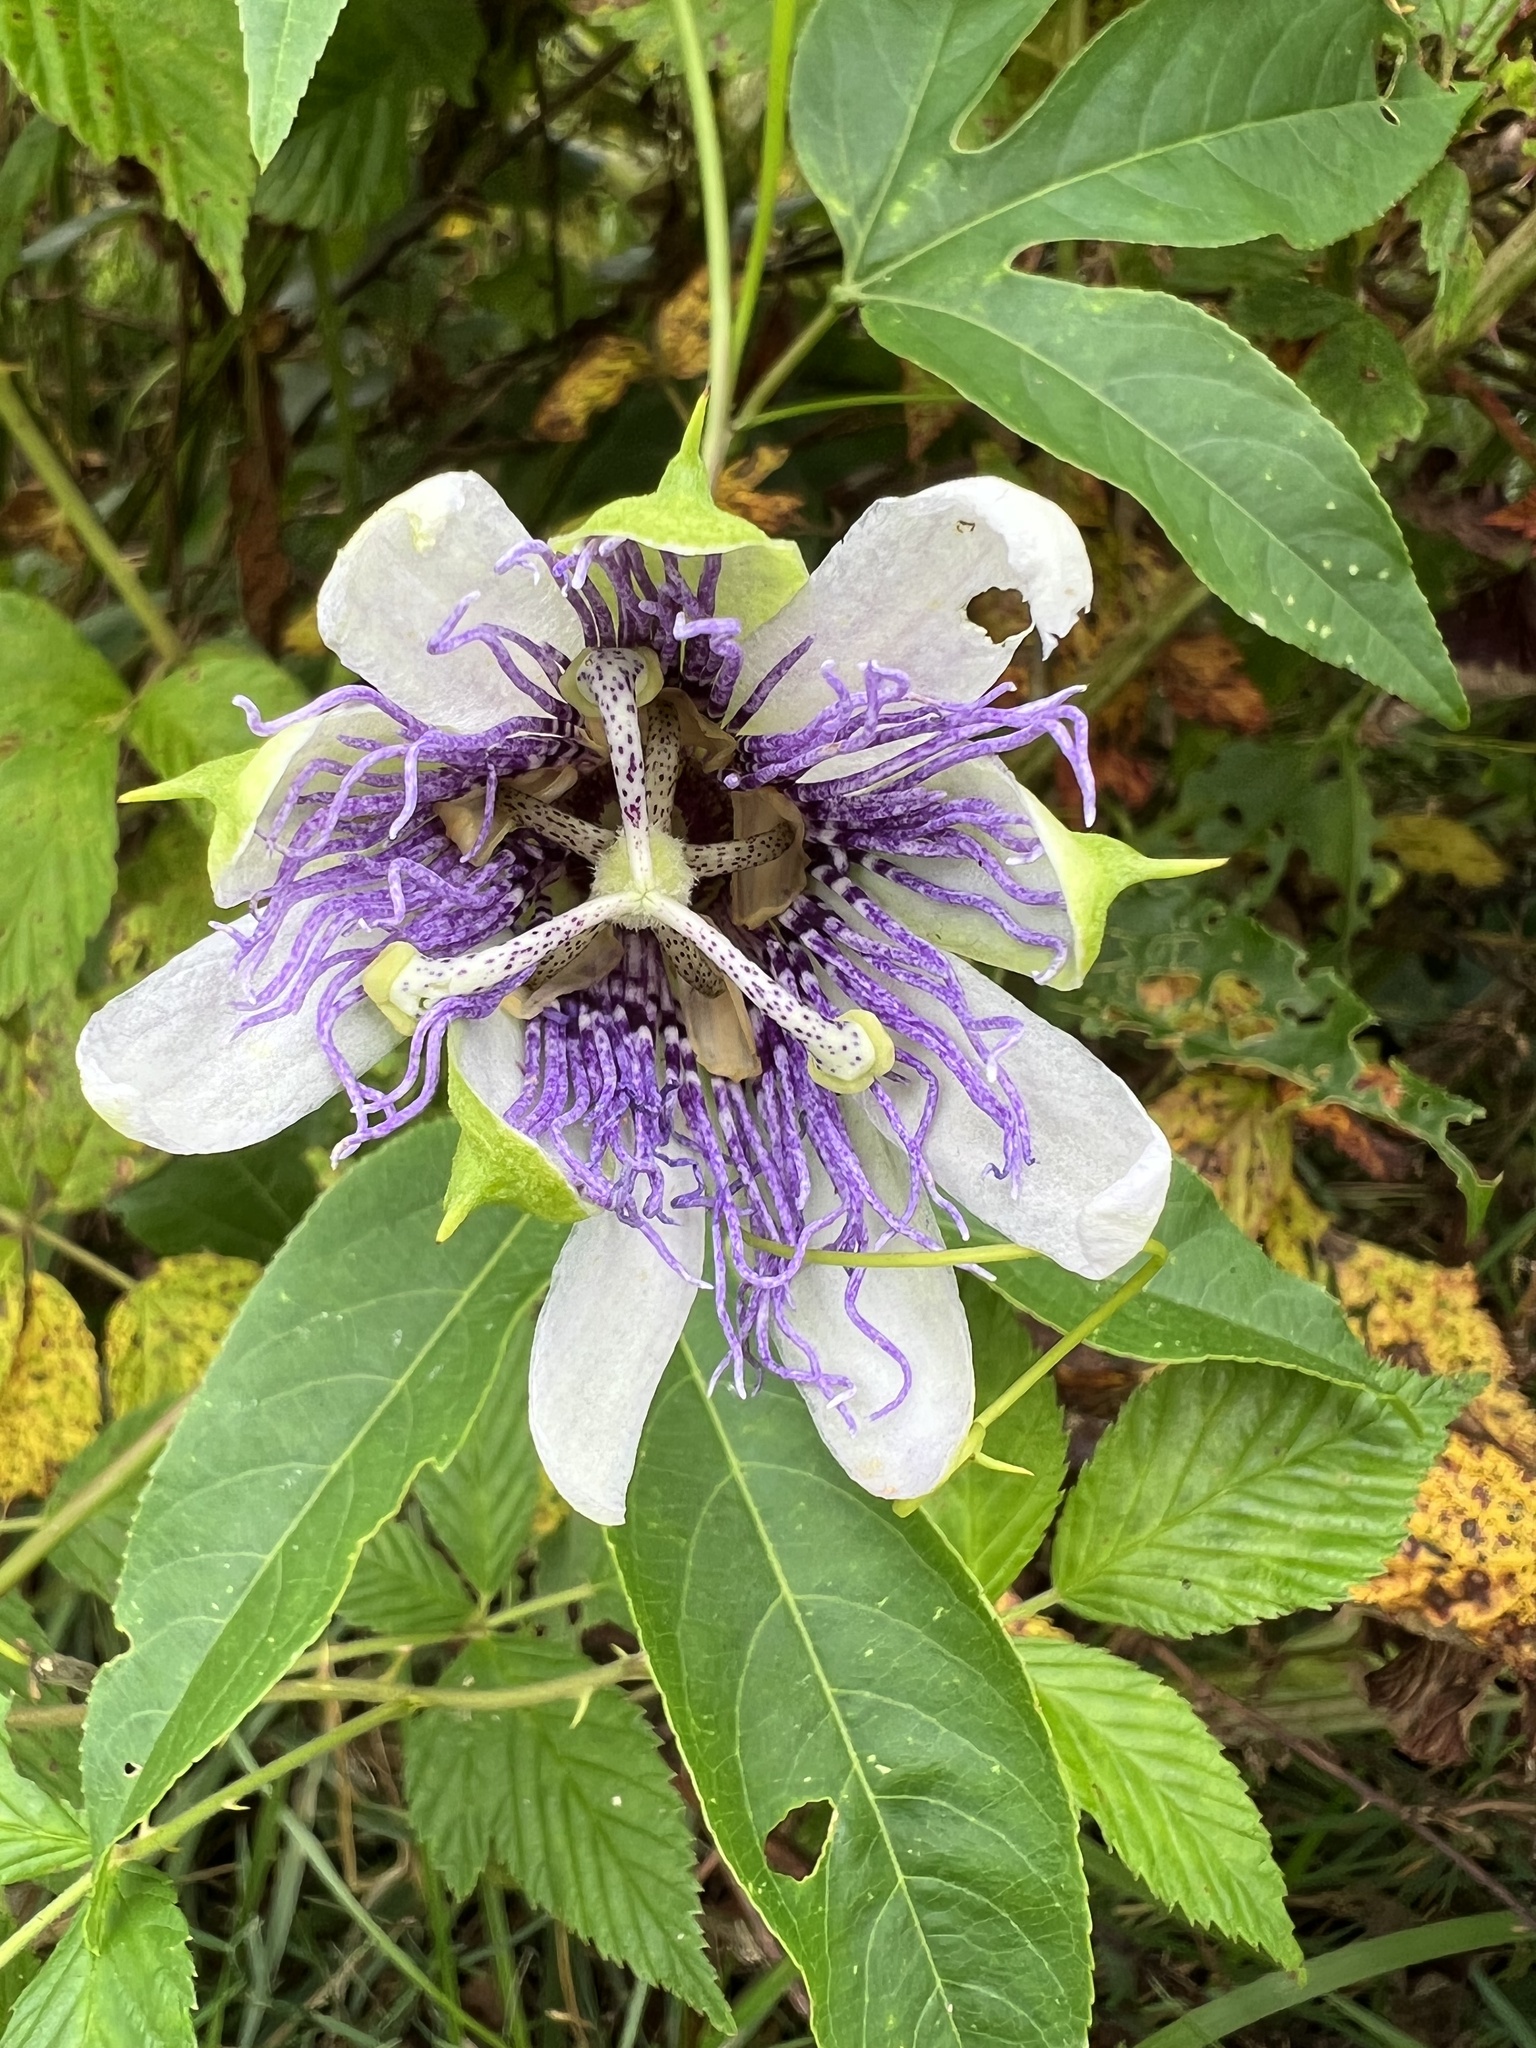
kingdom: Plantae
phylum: Tracheophyta
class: Magnoliopsida
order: Malpighiales
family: Passifloraceae
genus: Passiflora
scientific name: Passiflora incarnata
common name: Apricot-vine
